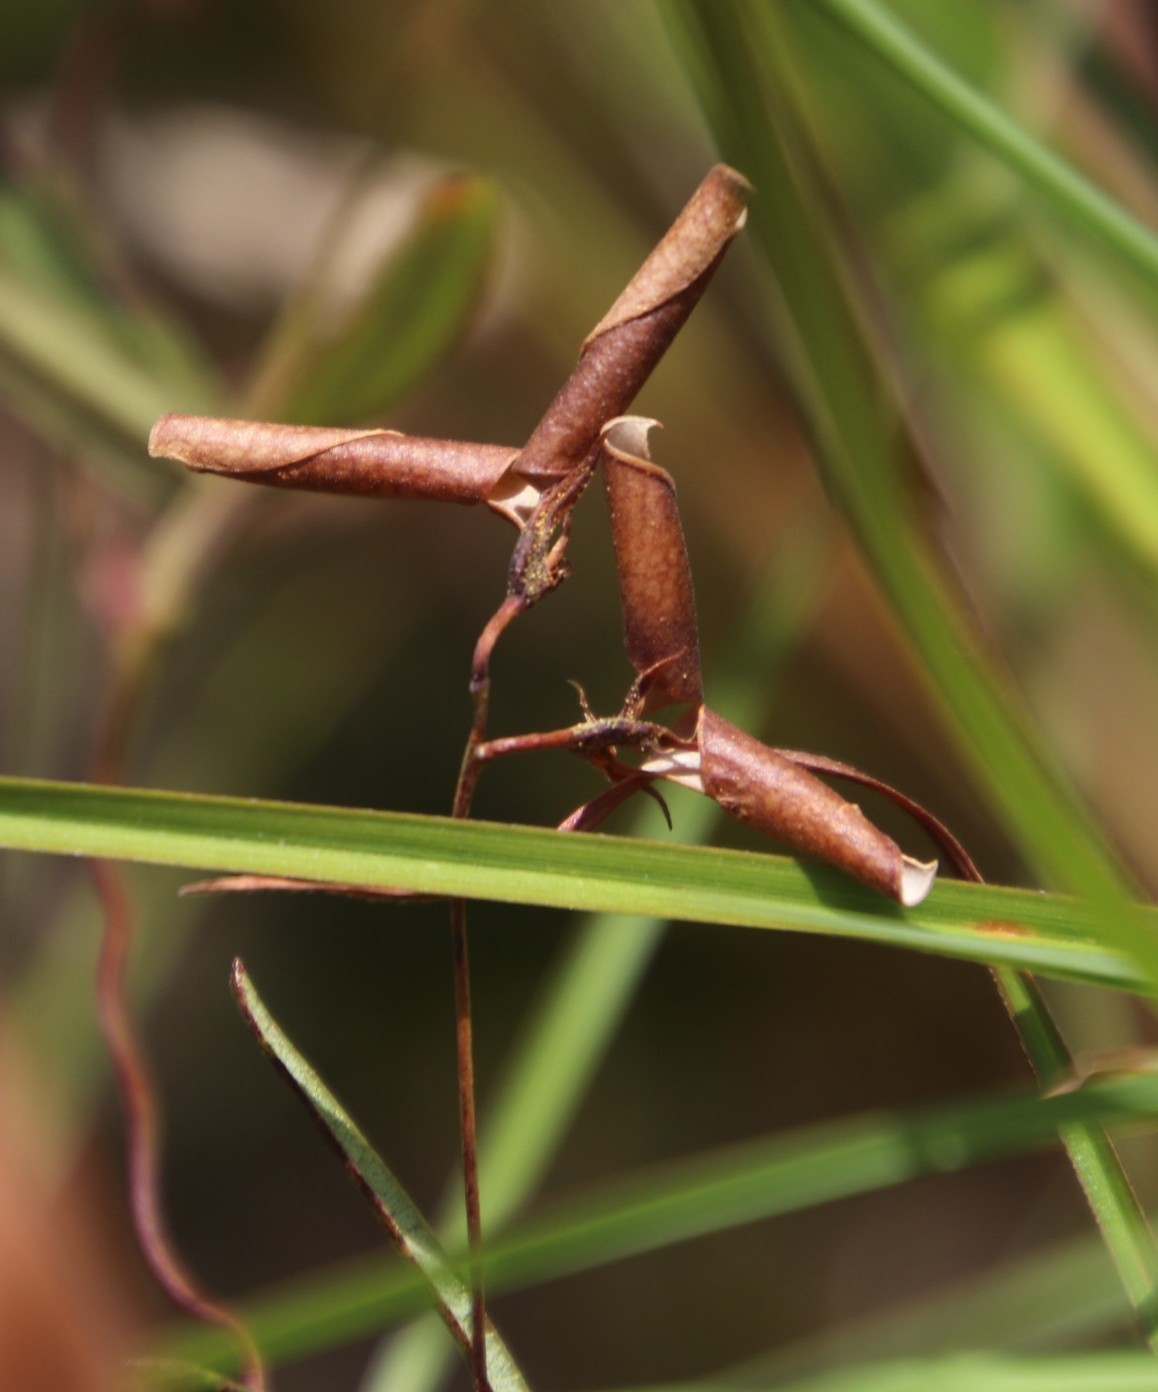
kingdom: Plantae
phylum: Tracheophyta
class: Magnoliopsida
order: Fabales
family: Fabaceae
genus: Rhynchosia
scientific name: Rhynchosia capensis
